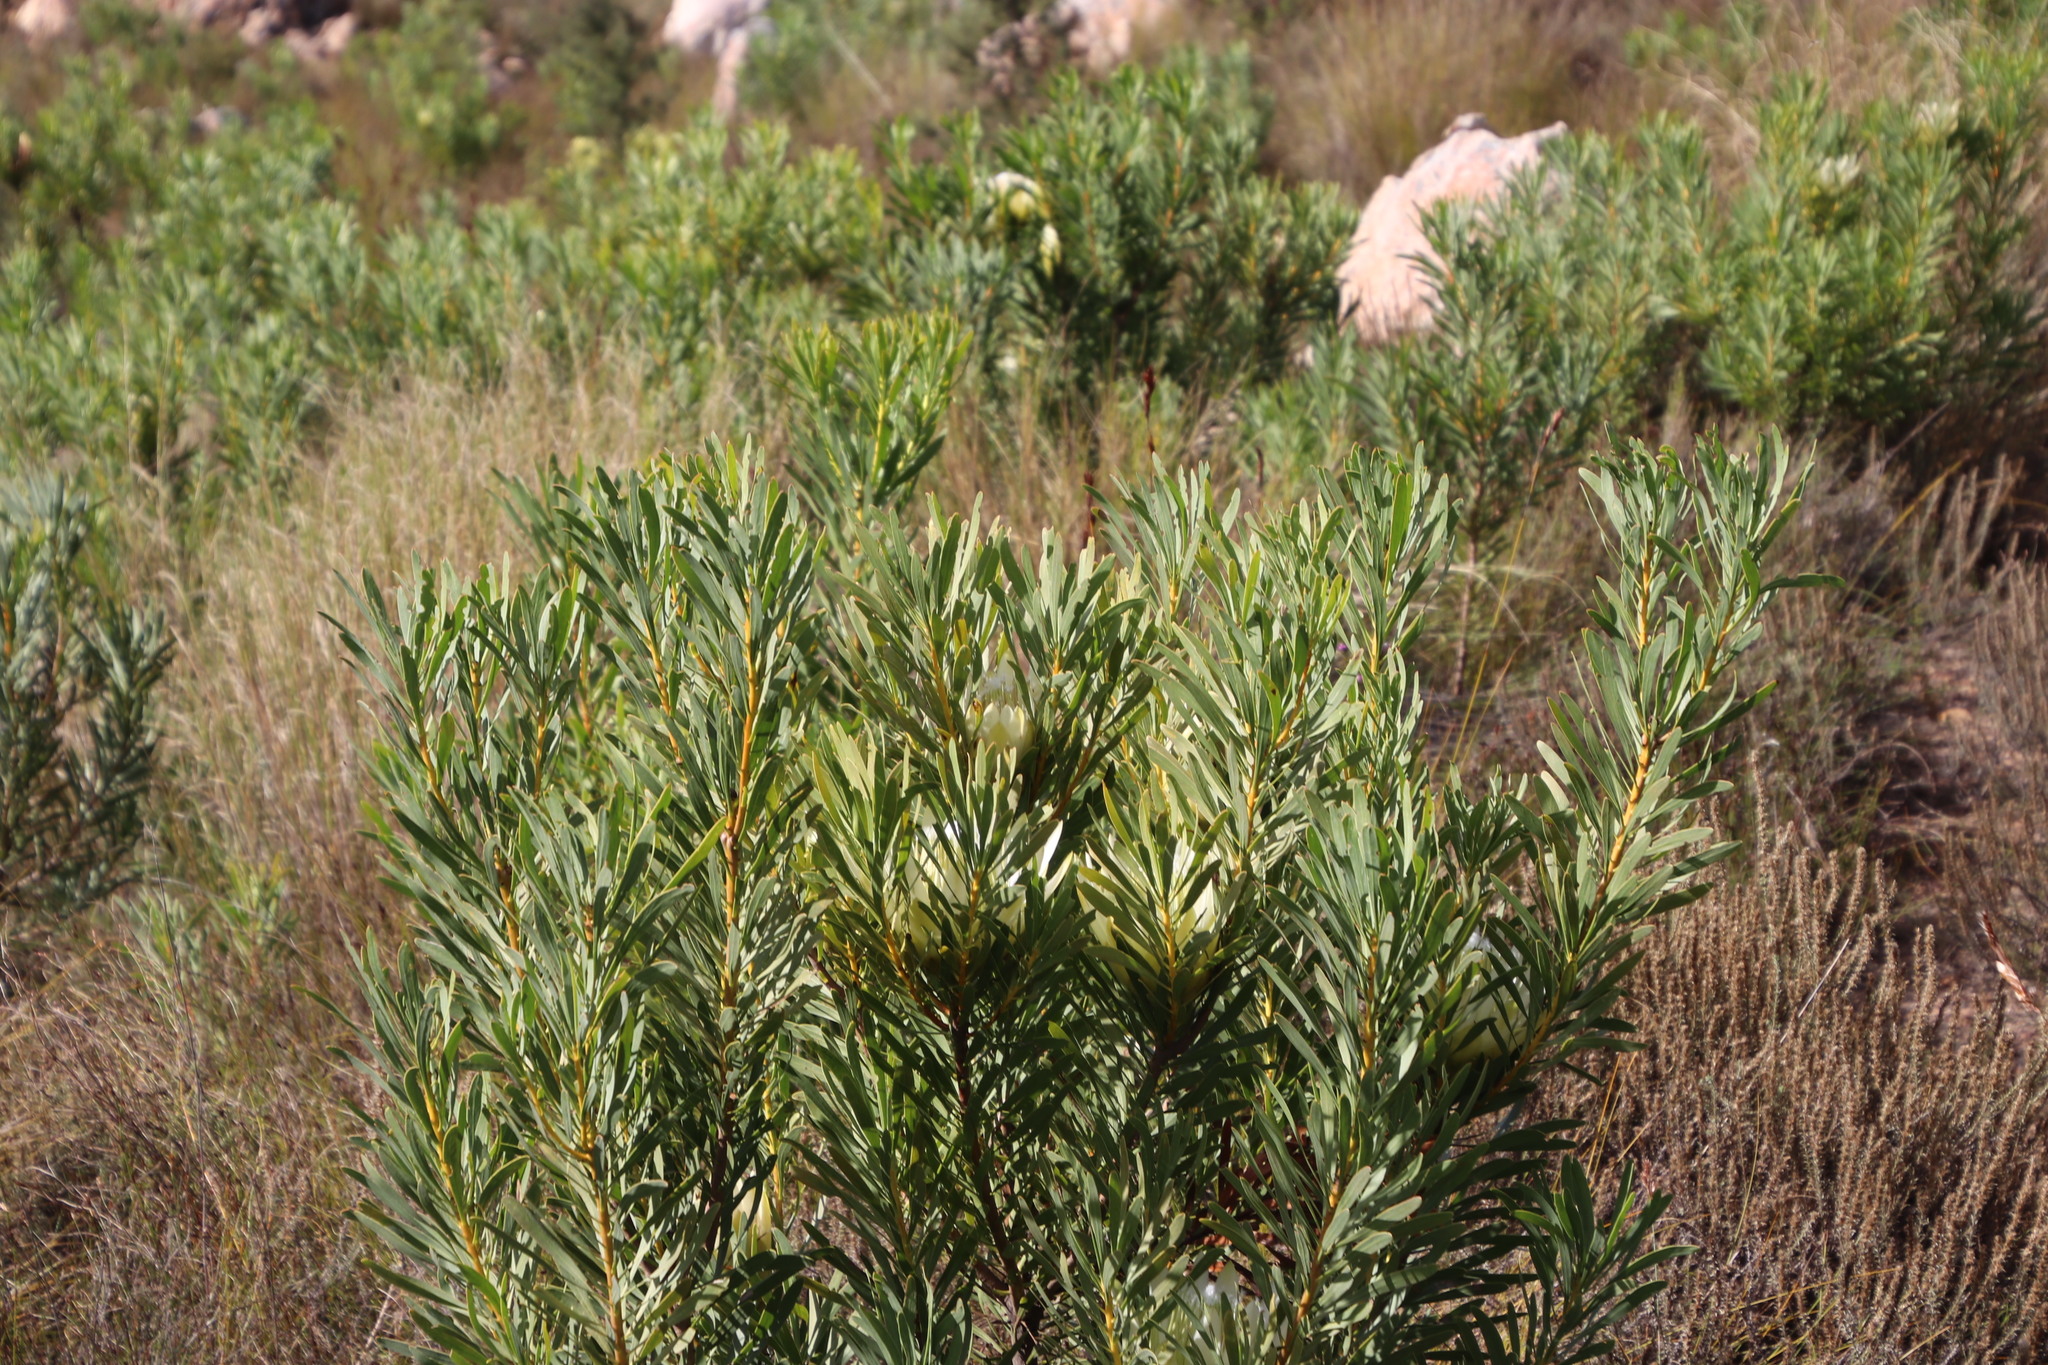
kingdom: Plantae
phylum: Tracheophyta
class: Magnoliopsida
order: Proteales
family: Proteaceae
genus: Protea
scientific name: Protea repens
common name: Sugarbush
